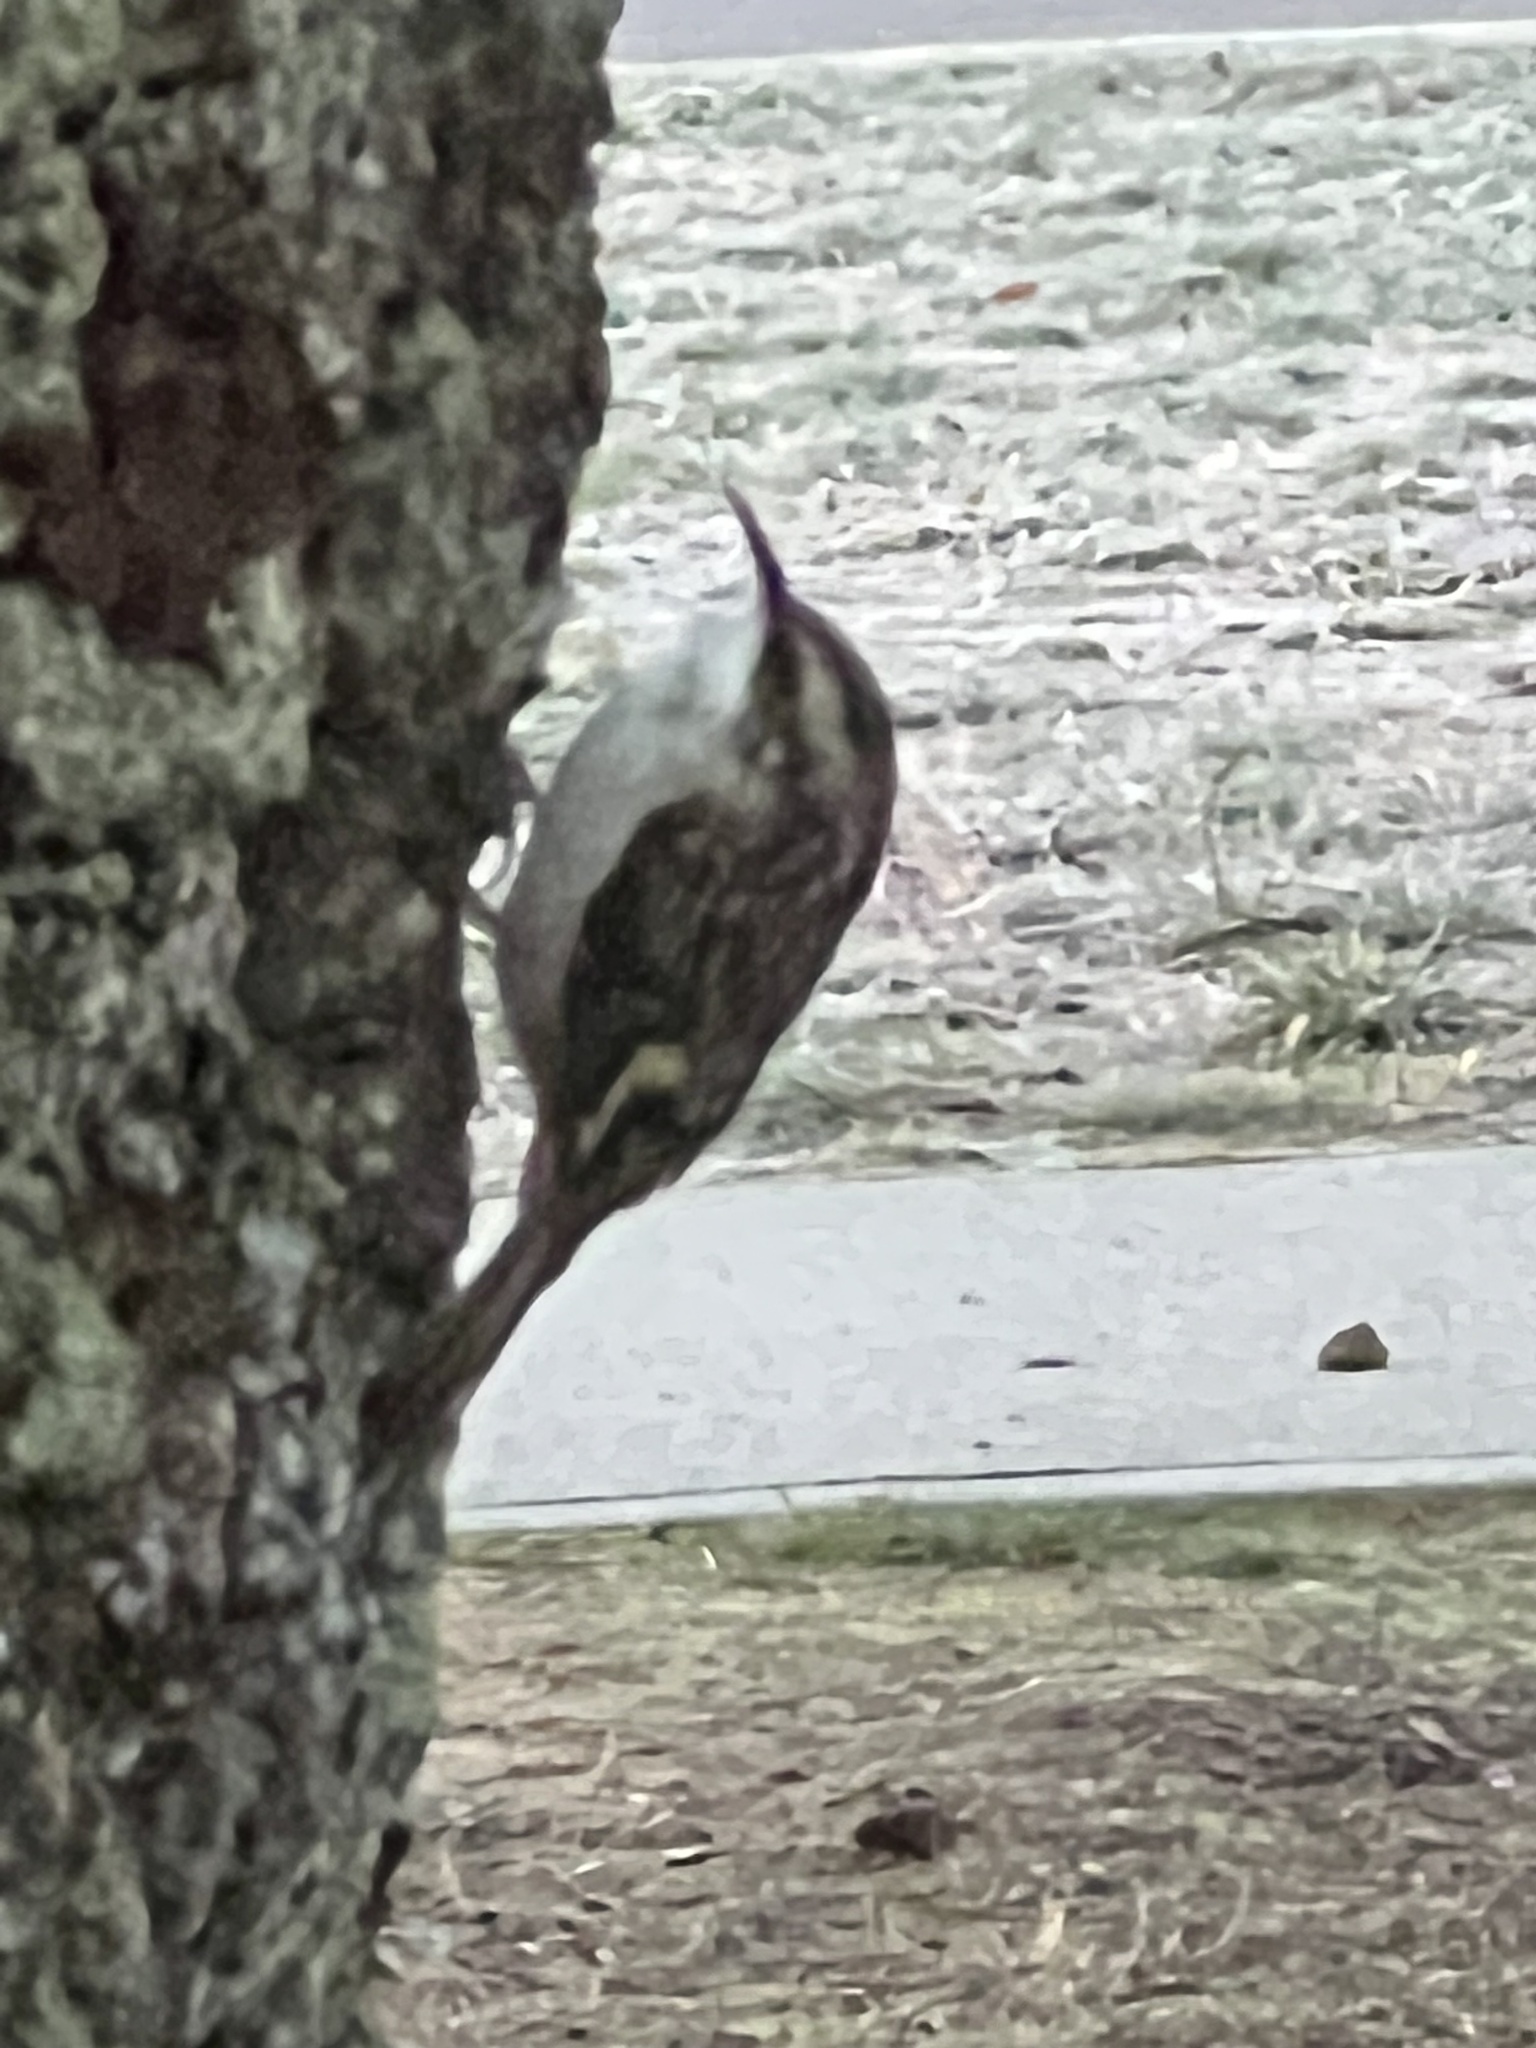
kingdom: Animalia
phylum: Chordata
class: Aves
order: Passeriformes
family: Certhiidae
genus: Certhia
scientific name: Certhia americana
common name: Brown creeper
